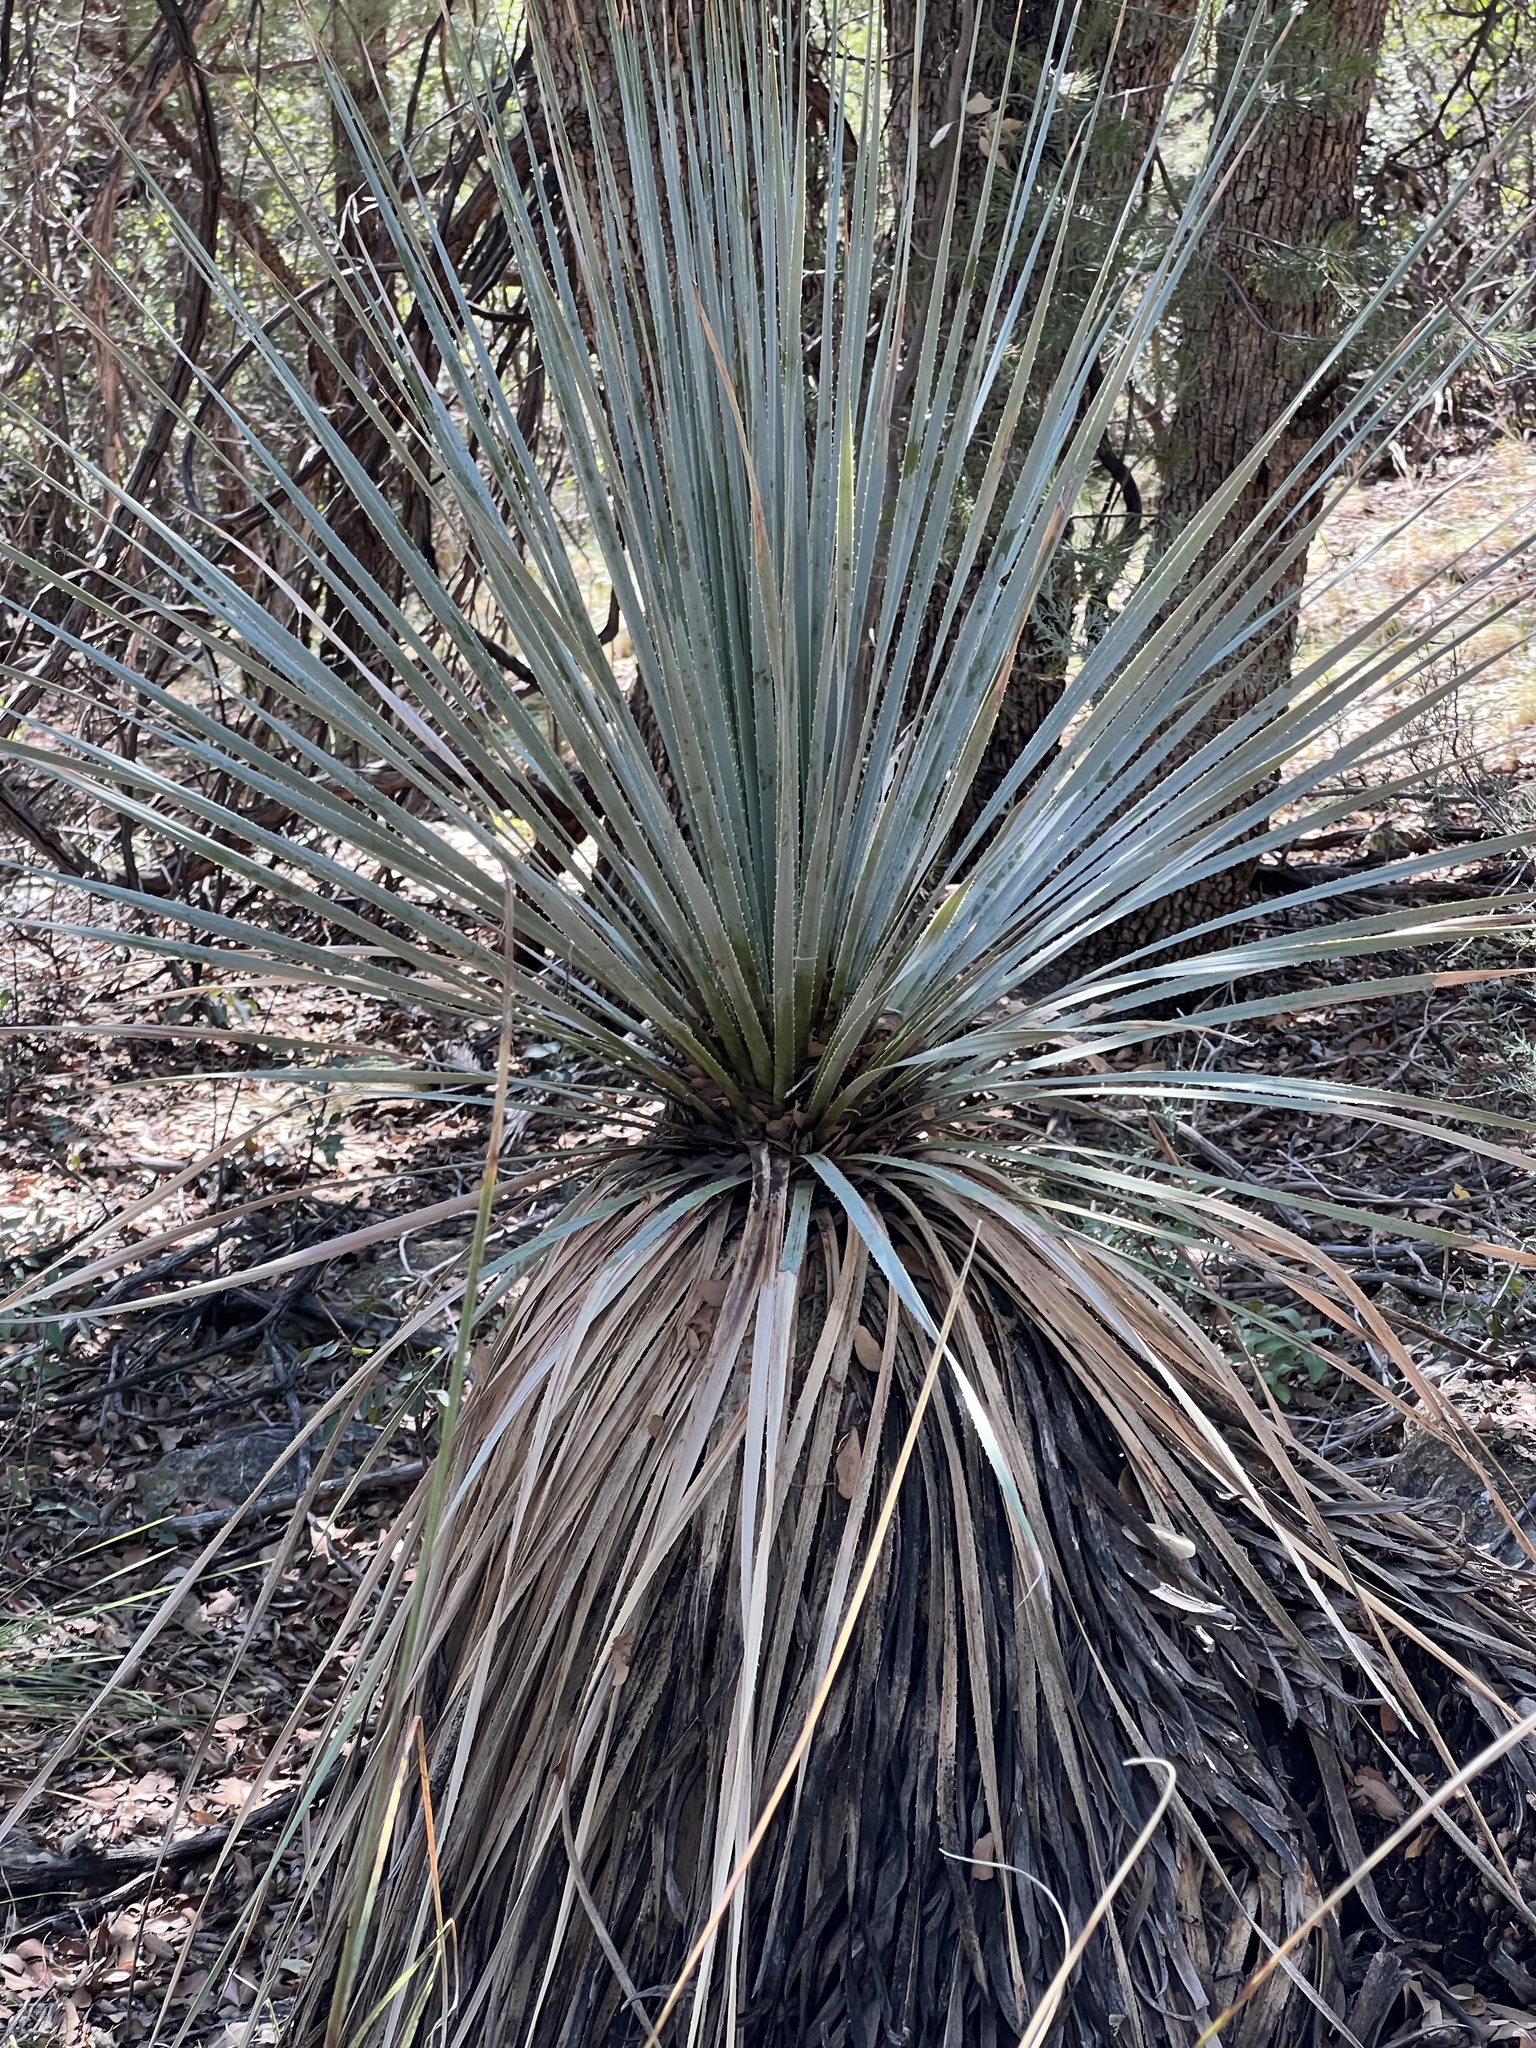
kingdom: Plantae
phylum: Tracheophyta
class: Liliopsida
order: Asparagales
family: Asparagaceae
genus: Dasylirion
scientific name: Dasylirion wheeleri
